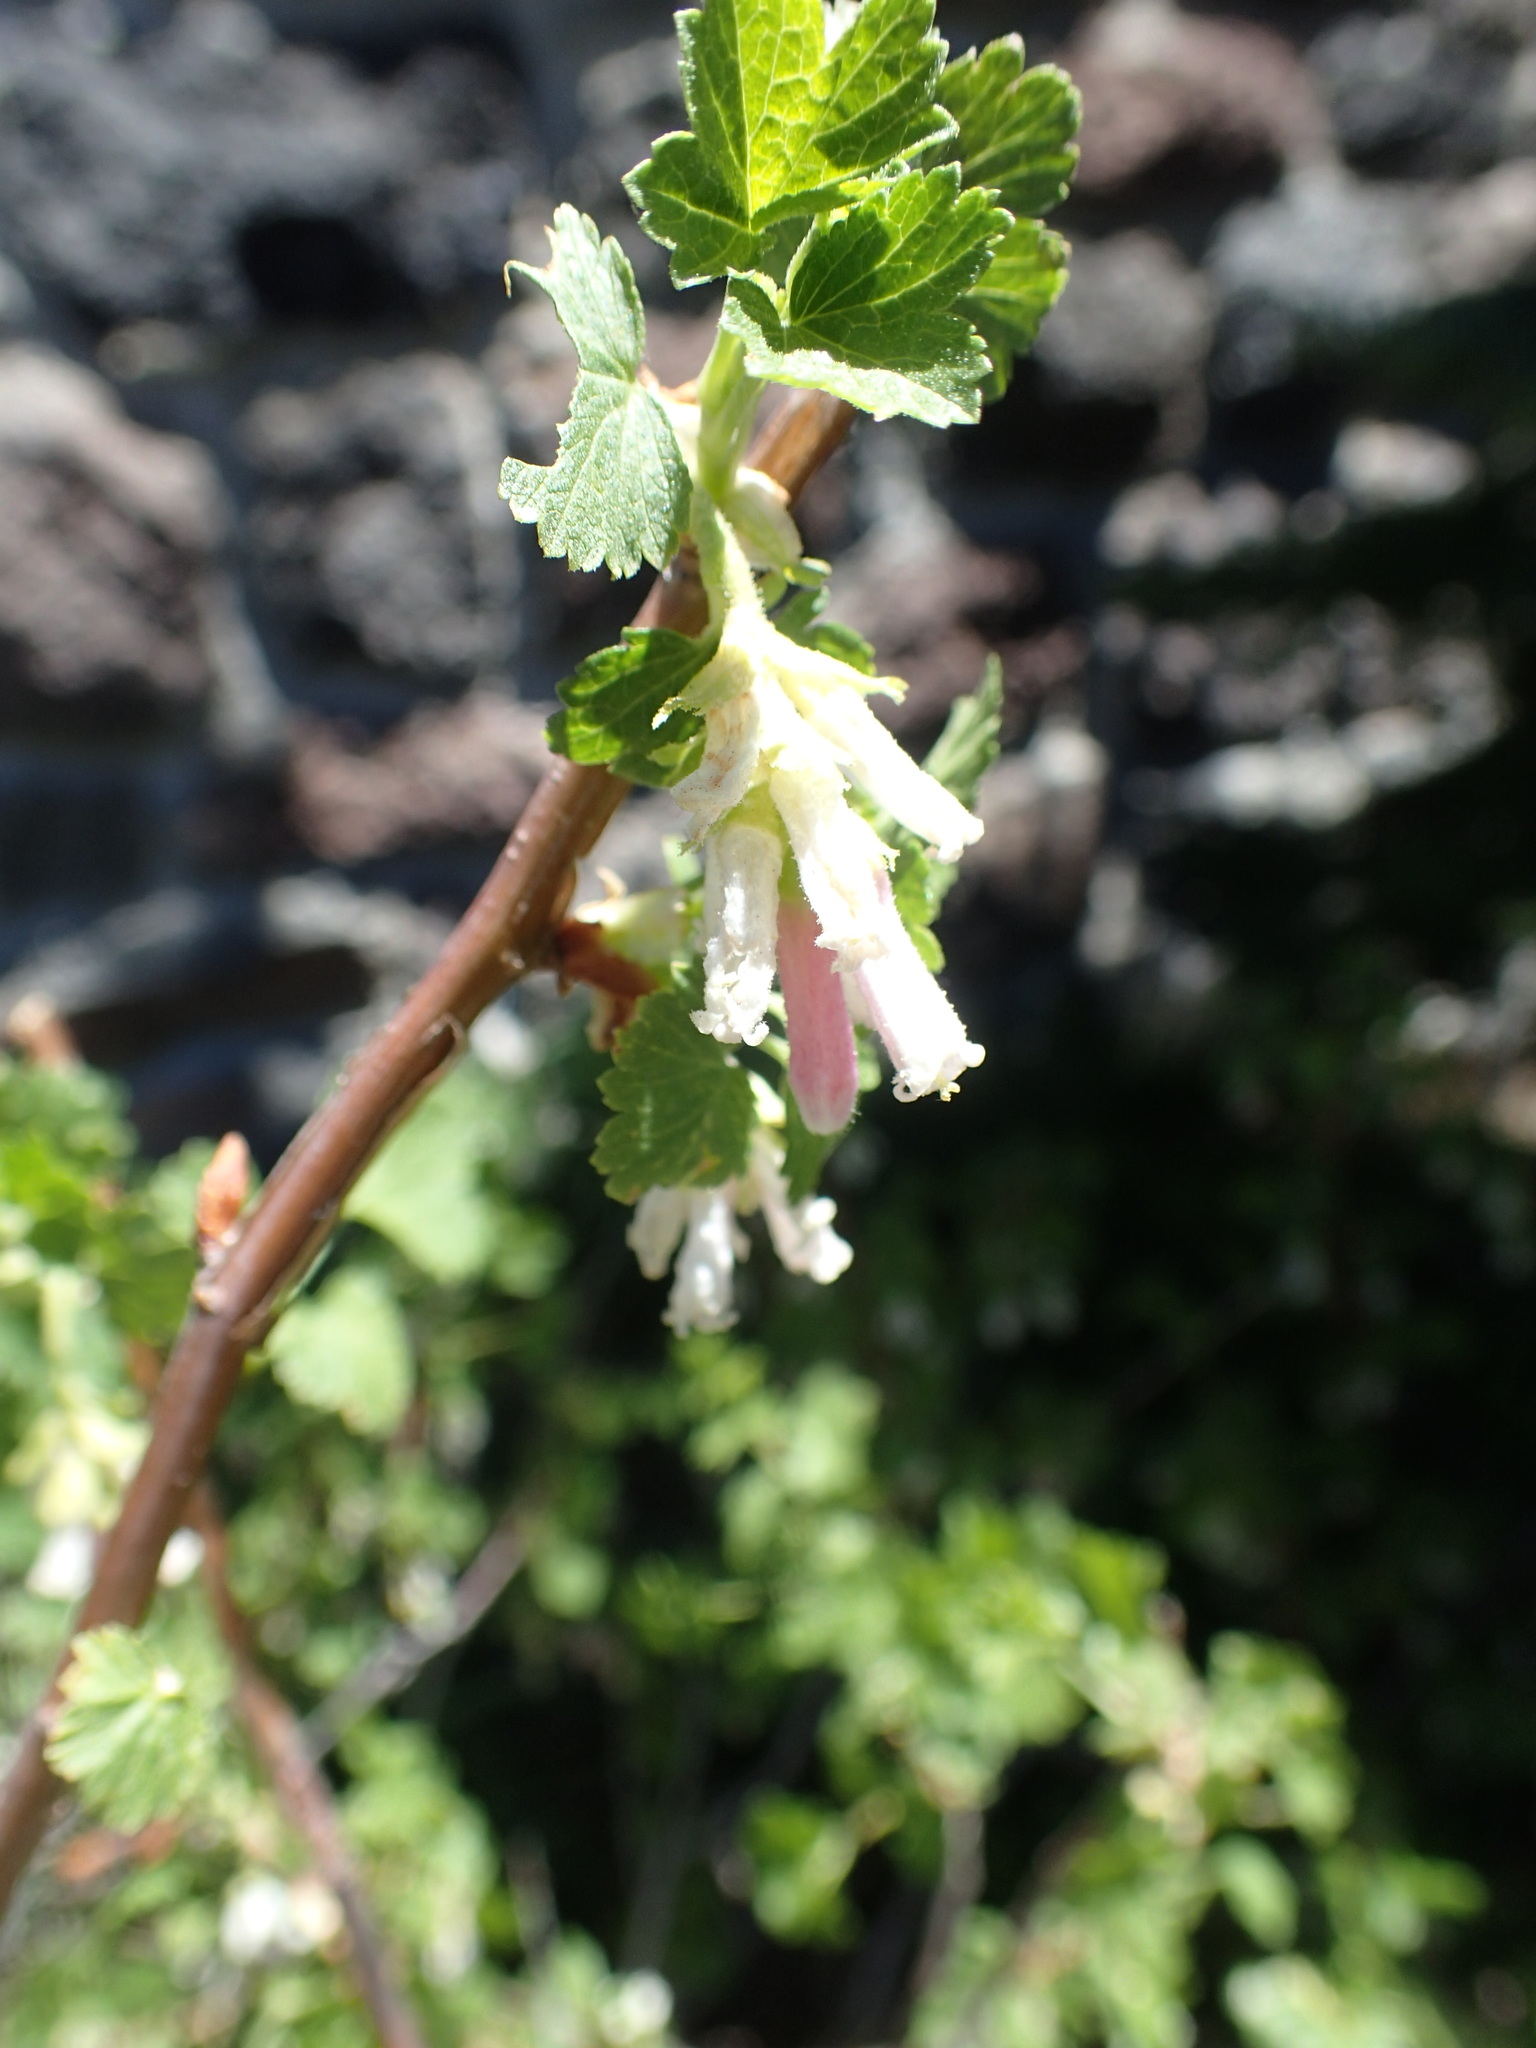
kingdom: Plantae
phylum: Tracheophyta
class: Magnoliopsida
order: Saxifragales
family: Grossulariaceae
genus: Ribes
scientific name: Ribes cereum
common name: Wax currant
